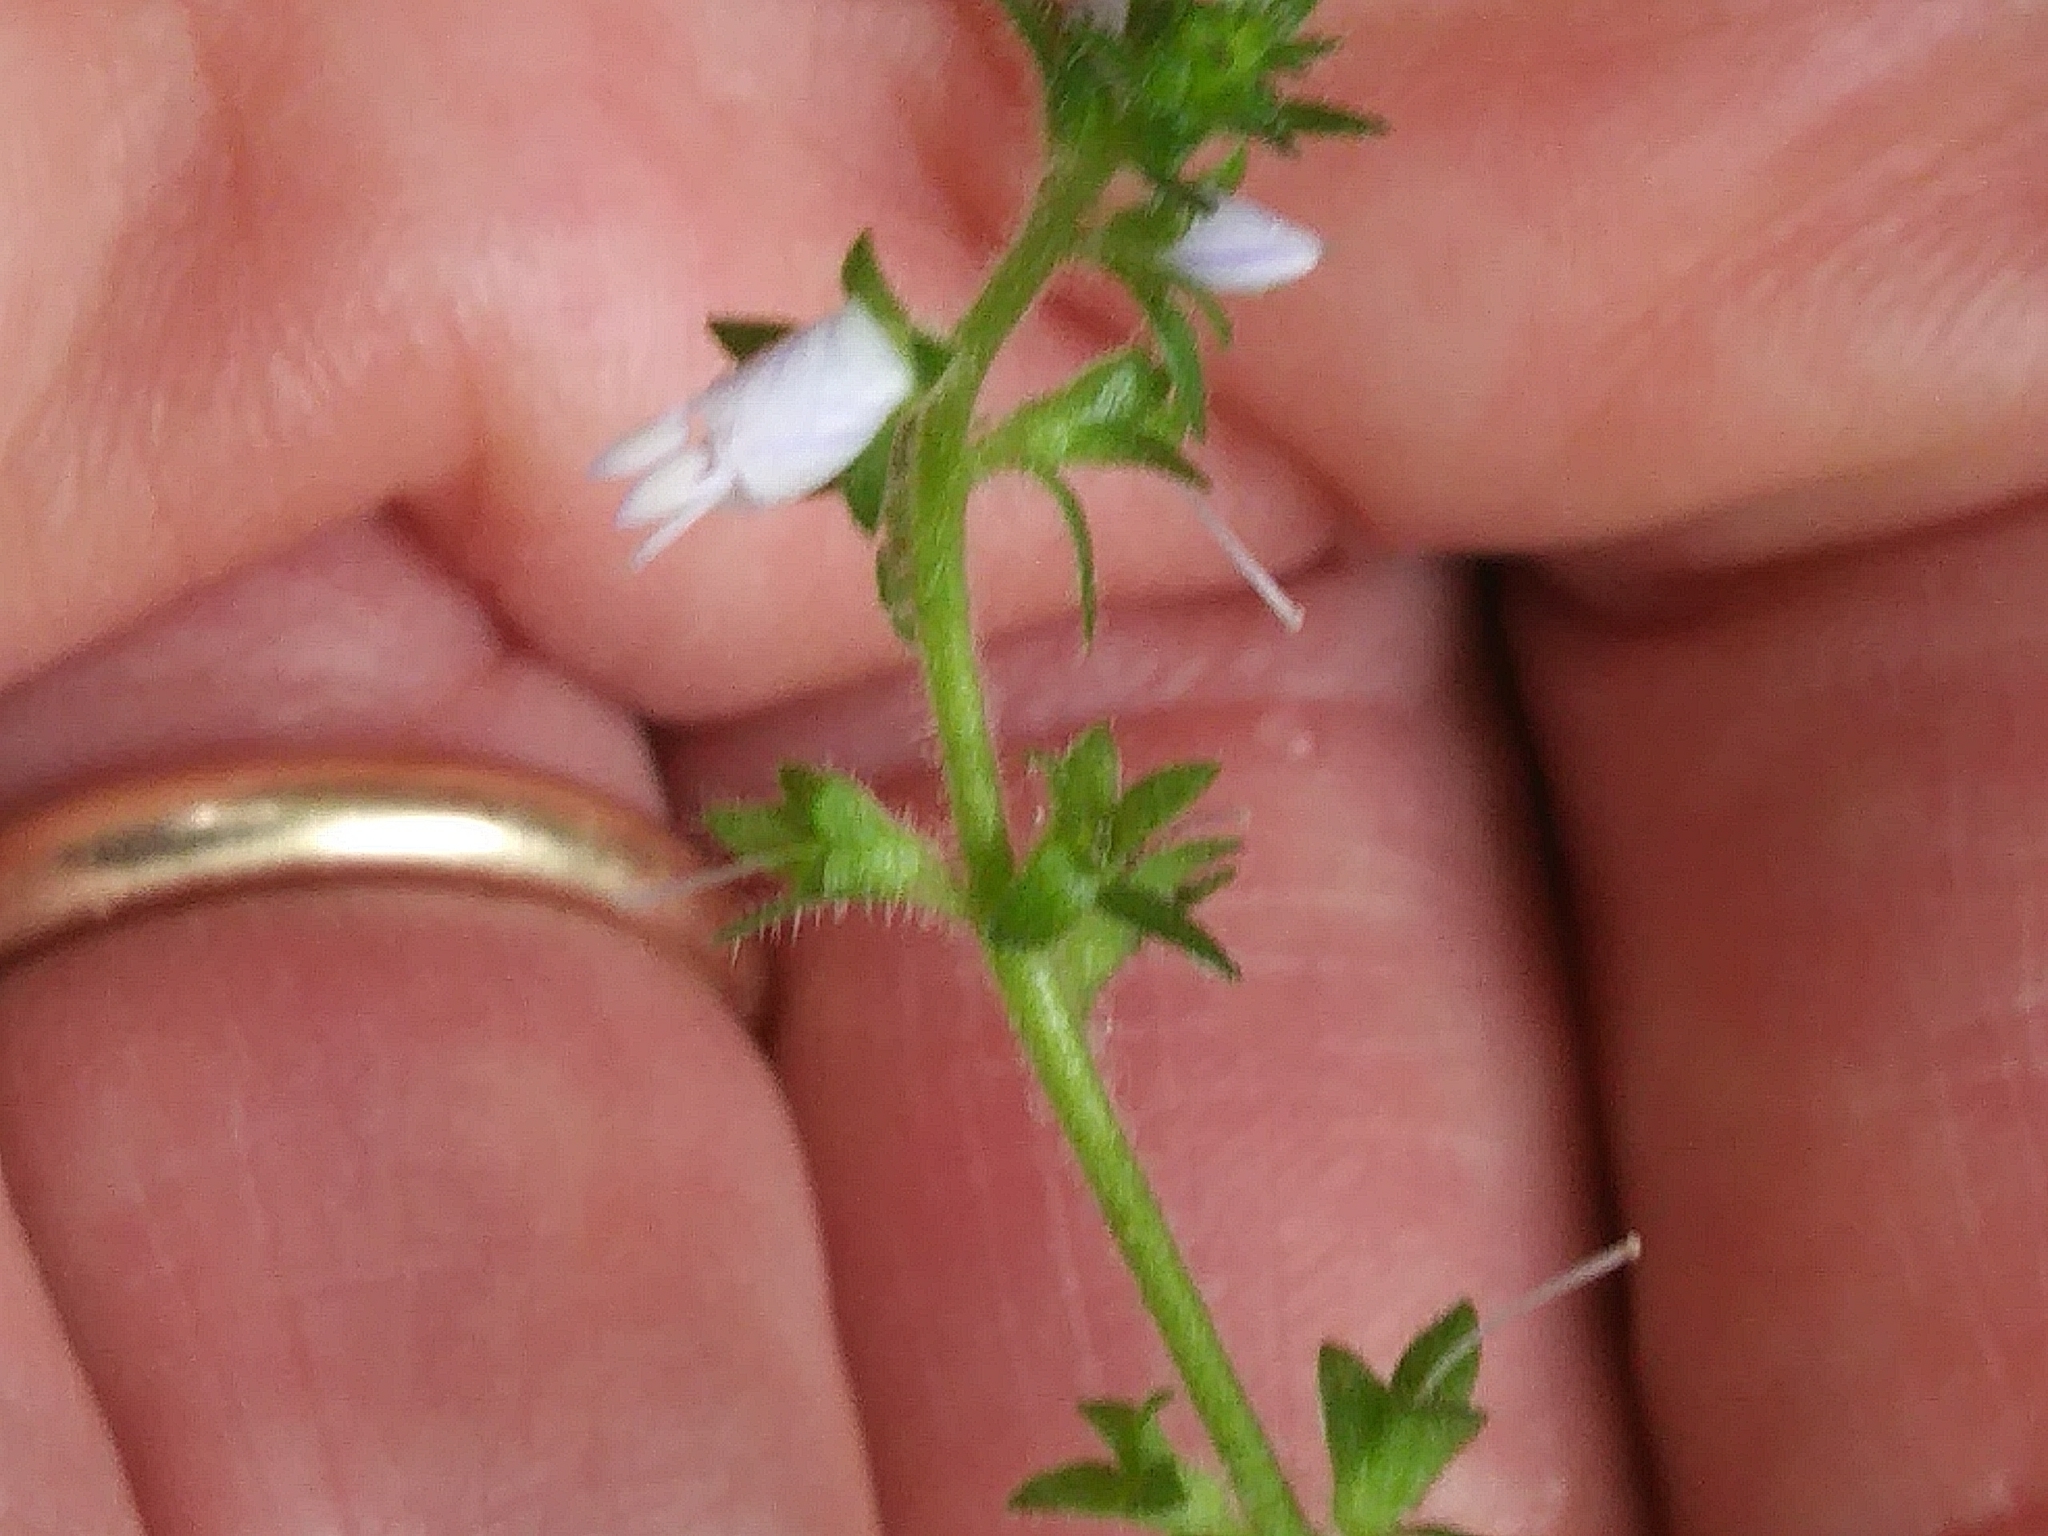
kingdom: Plantae
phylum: Tracheophyta
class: Magnoliopsida
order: Lamiales
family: Plantaginaceae
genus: Veronica
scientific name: Veronica officinalis
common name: Common speedwell
